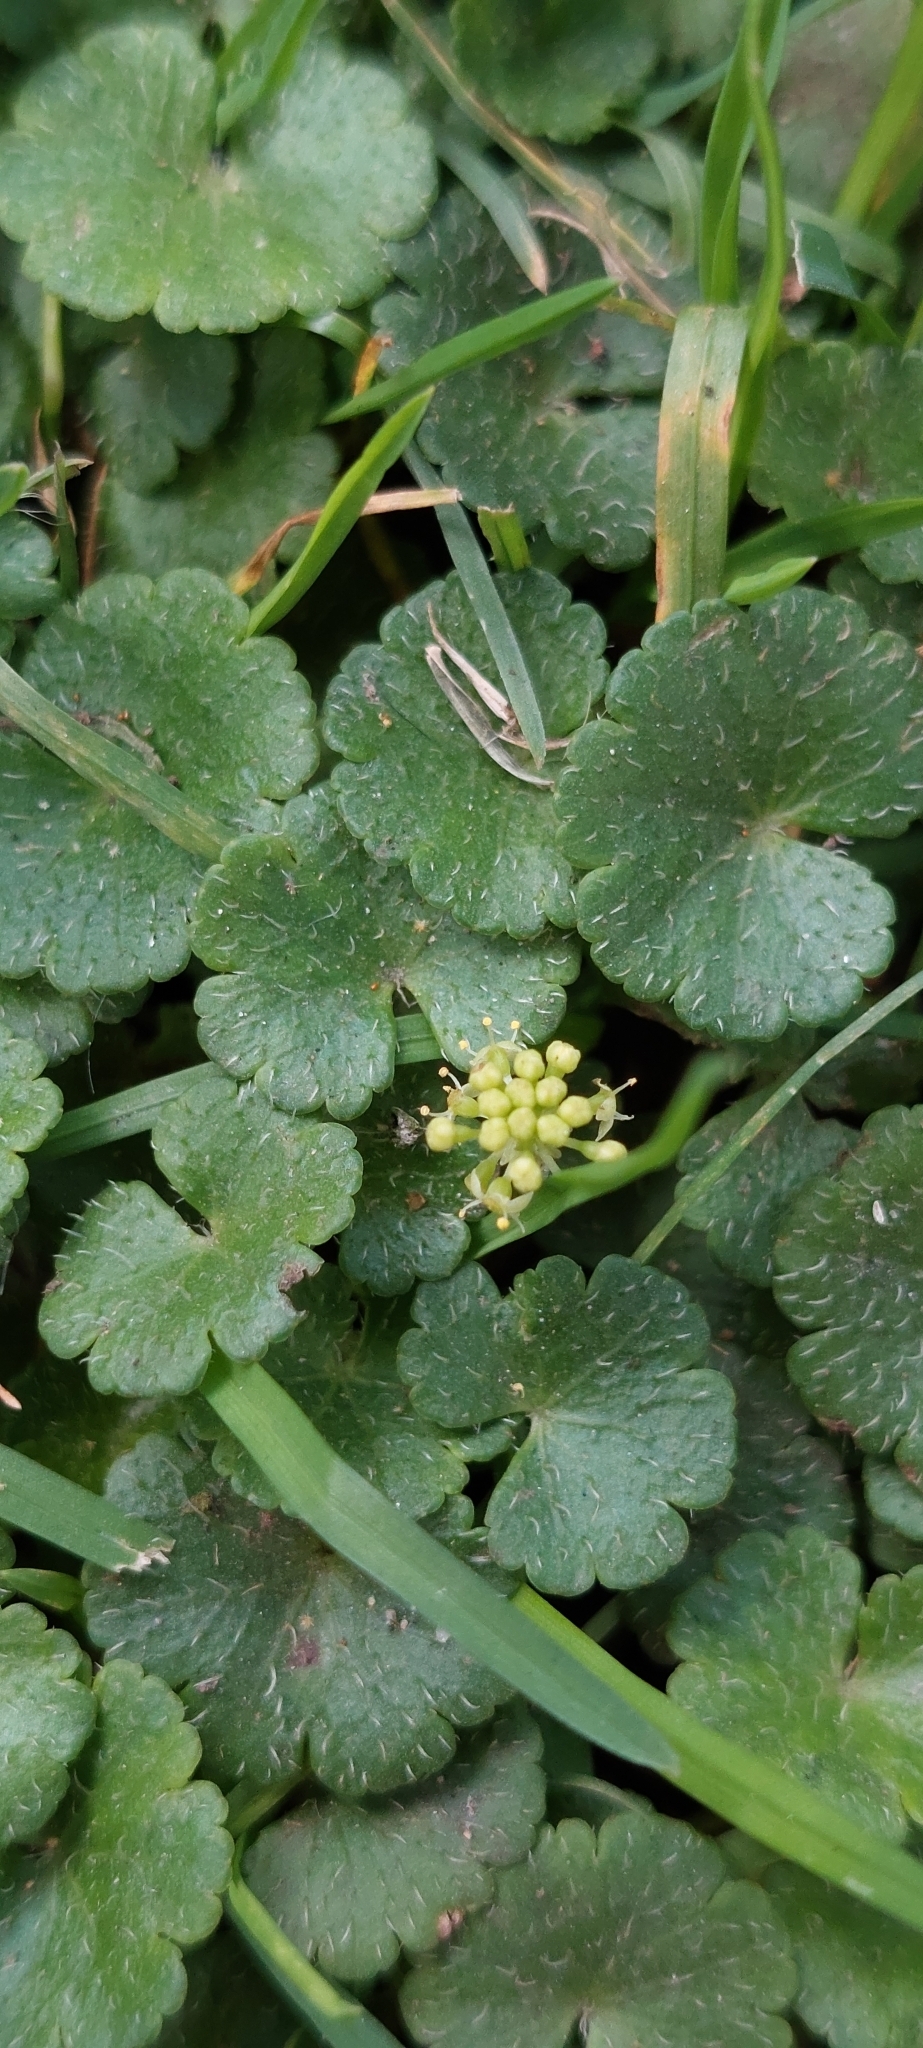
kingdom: Plantae
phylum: Tracheophyta
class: Magnoliopsida
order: Apiales
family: Araliaceae
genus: Hydrocotyle
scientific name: Hydrocotyle bonplandii
